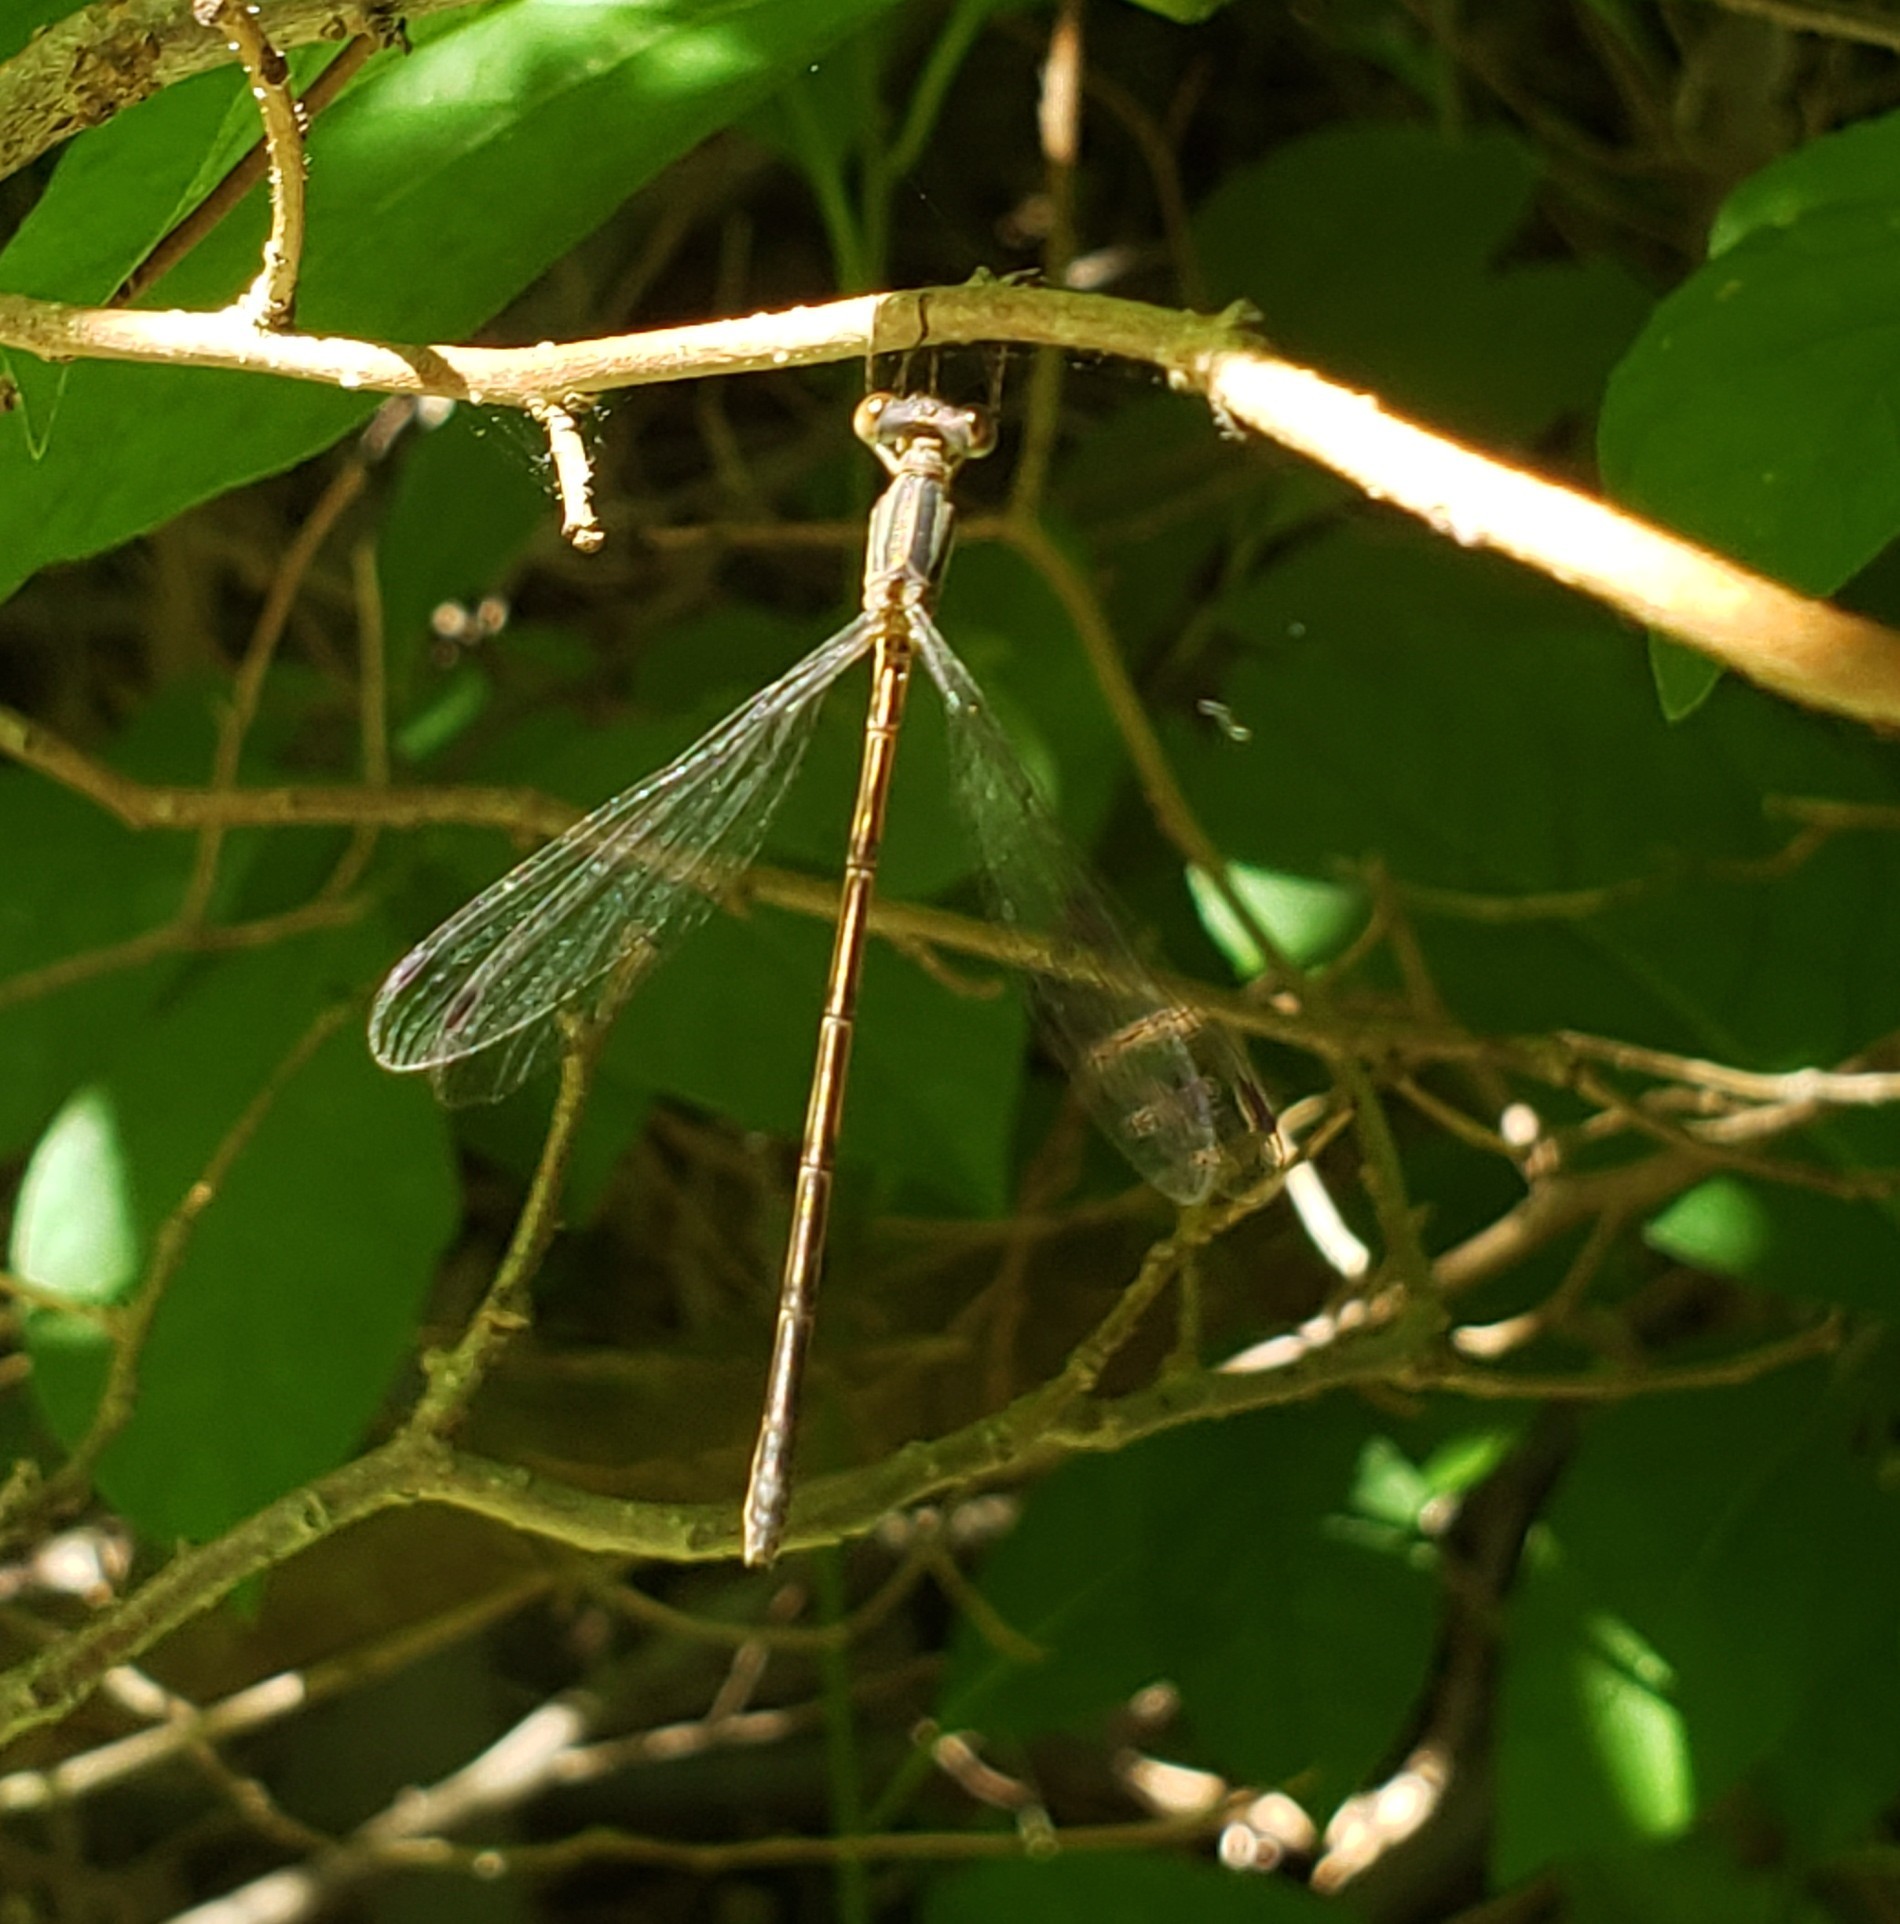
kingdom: Animalia
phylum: Arthropoda
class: Insecta
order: Odonata
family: Lestidae
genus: Lestes
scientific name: Lestes
